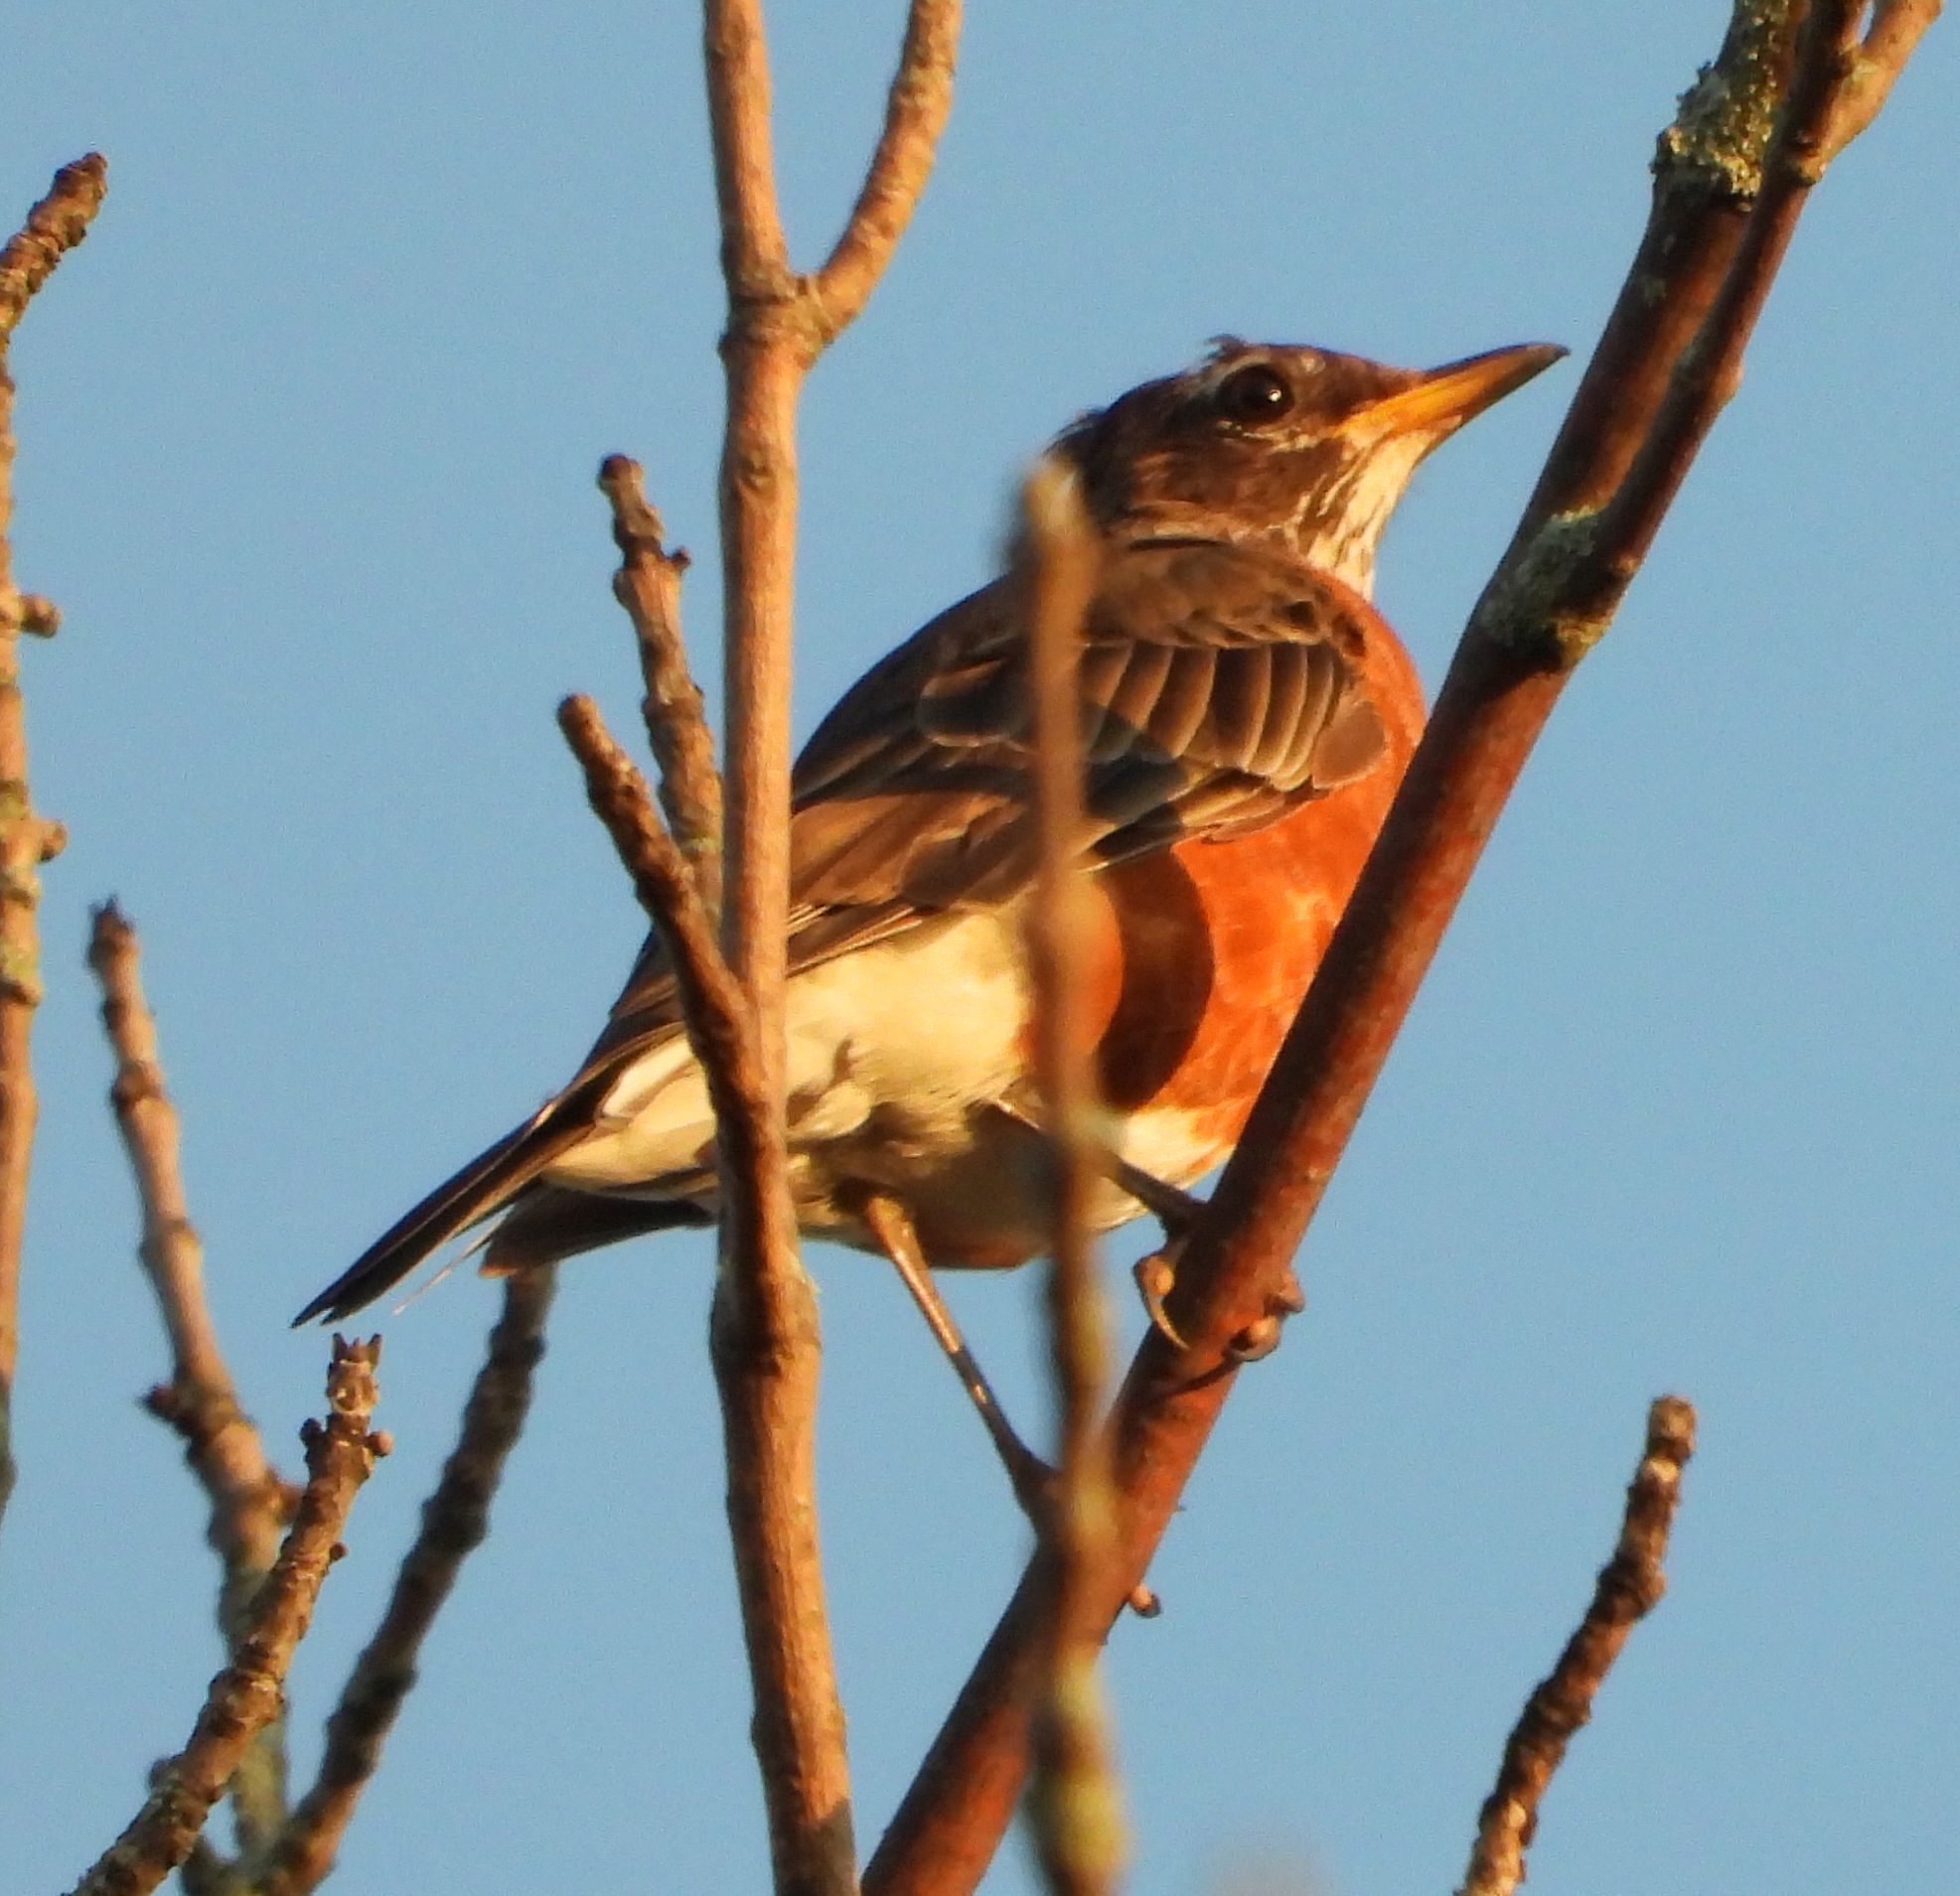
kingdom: Animalia
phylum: Chordata
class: Aves
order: Passeriformes
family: Turdidae
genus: Turdus
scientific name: Turdus migratorius
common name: American robin
